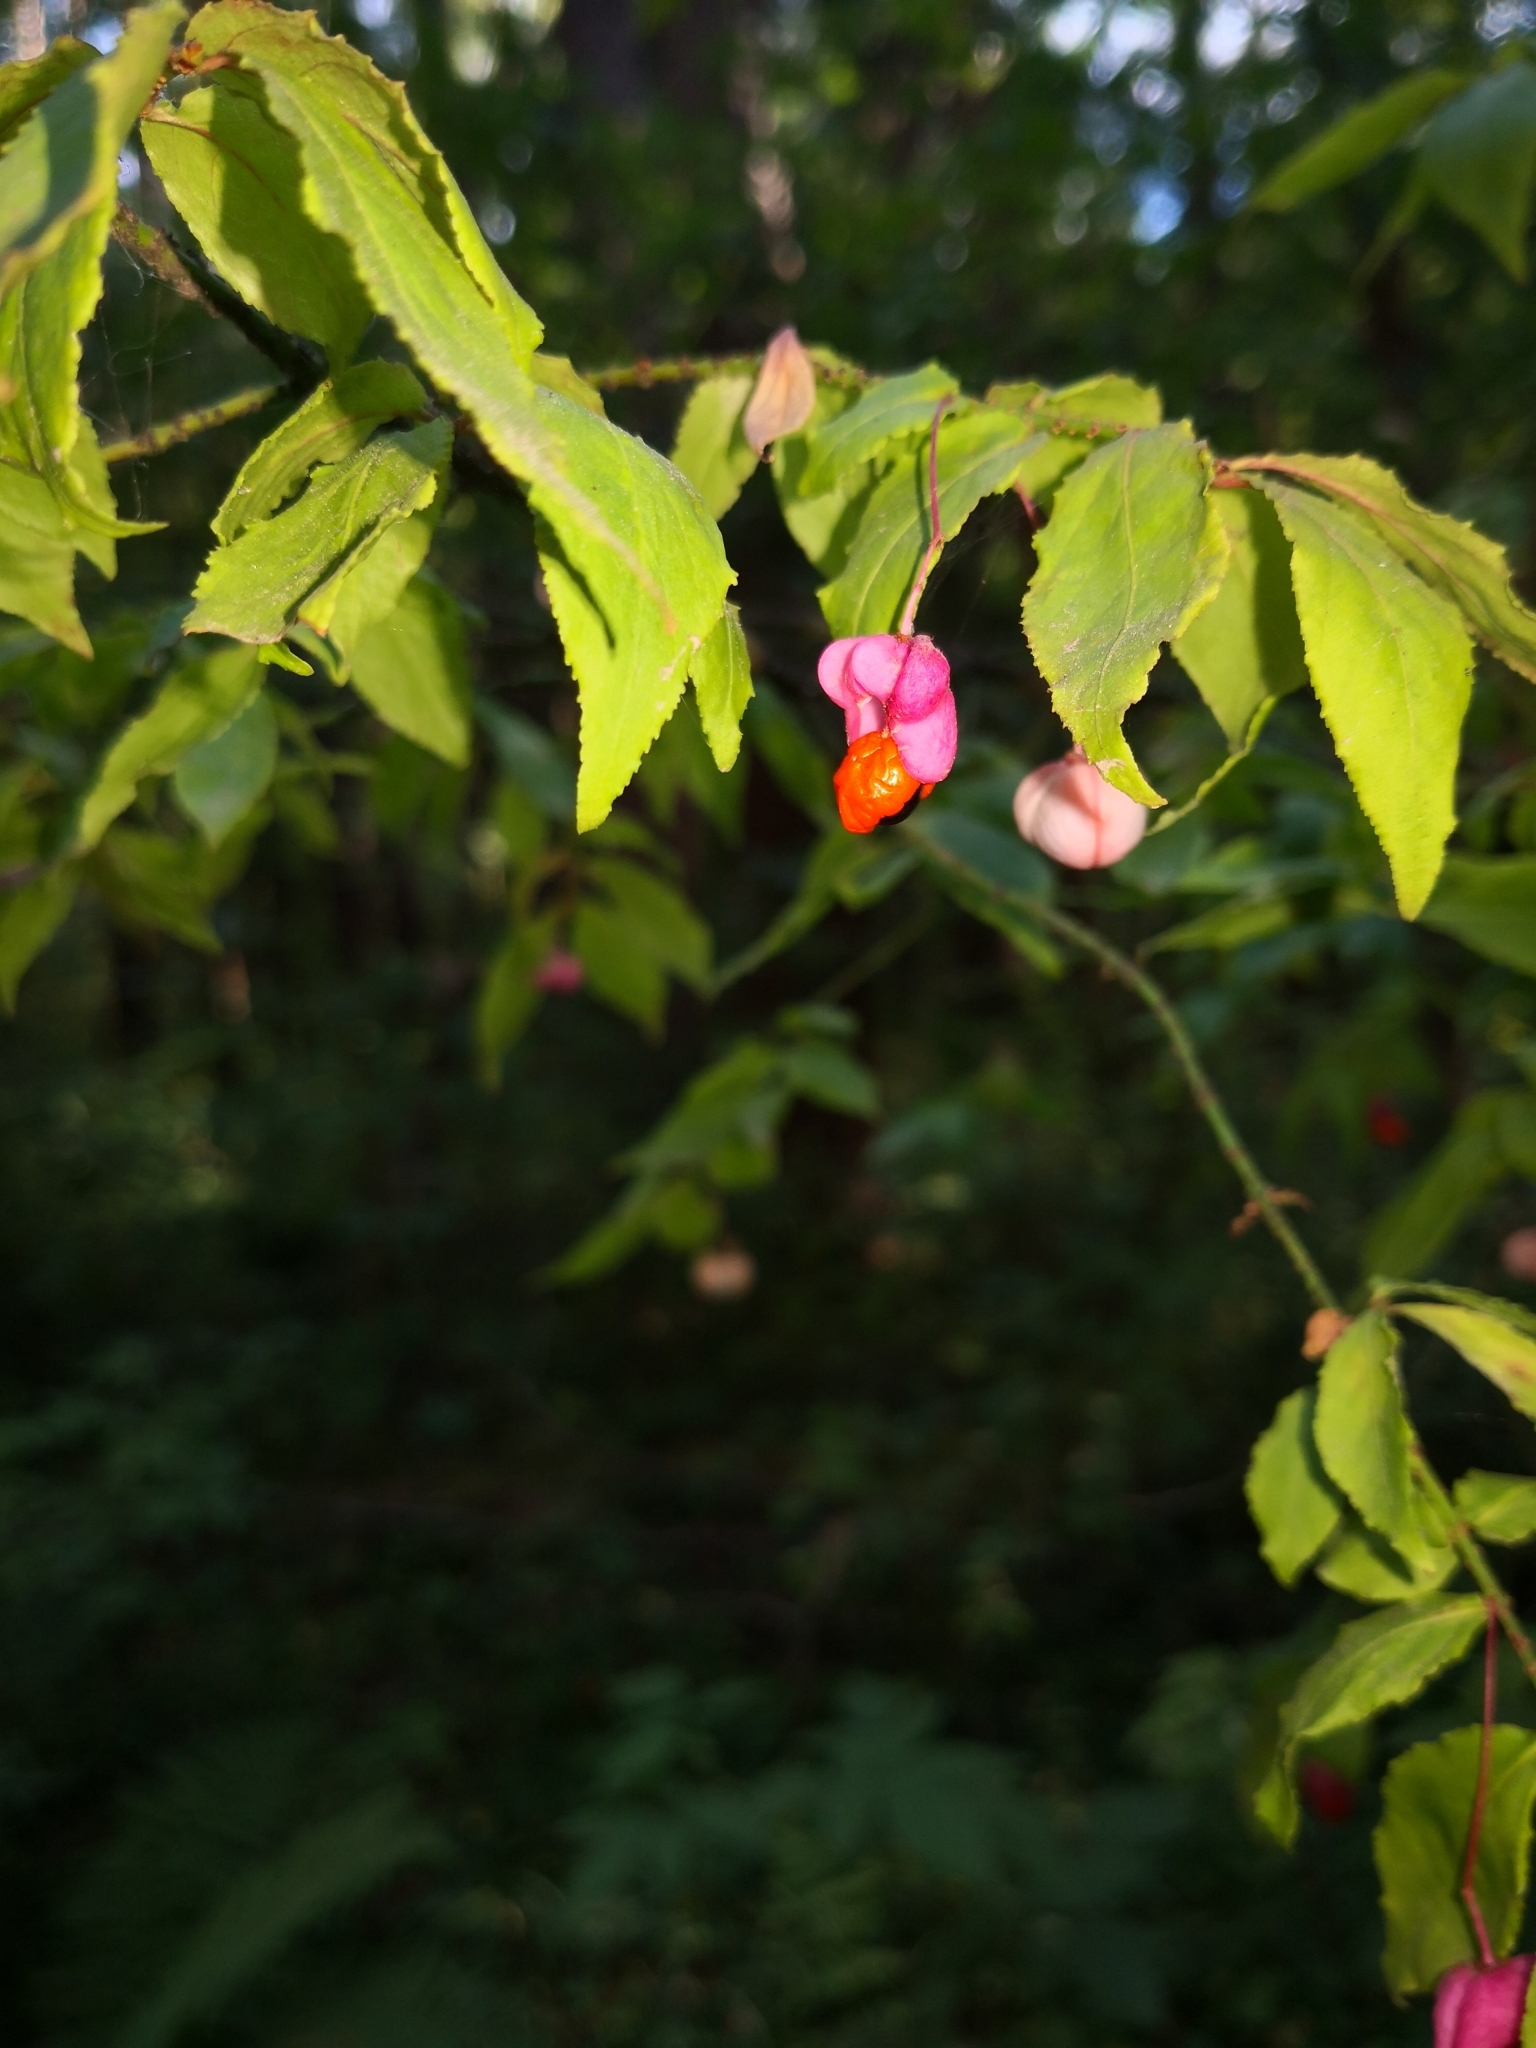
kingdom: Plantae
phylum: Tracheophyta
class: Magnoliopsida
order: Celastrales
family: Celastraceae
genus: Euonymus
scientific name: Euonymus verrucosus
